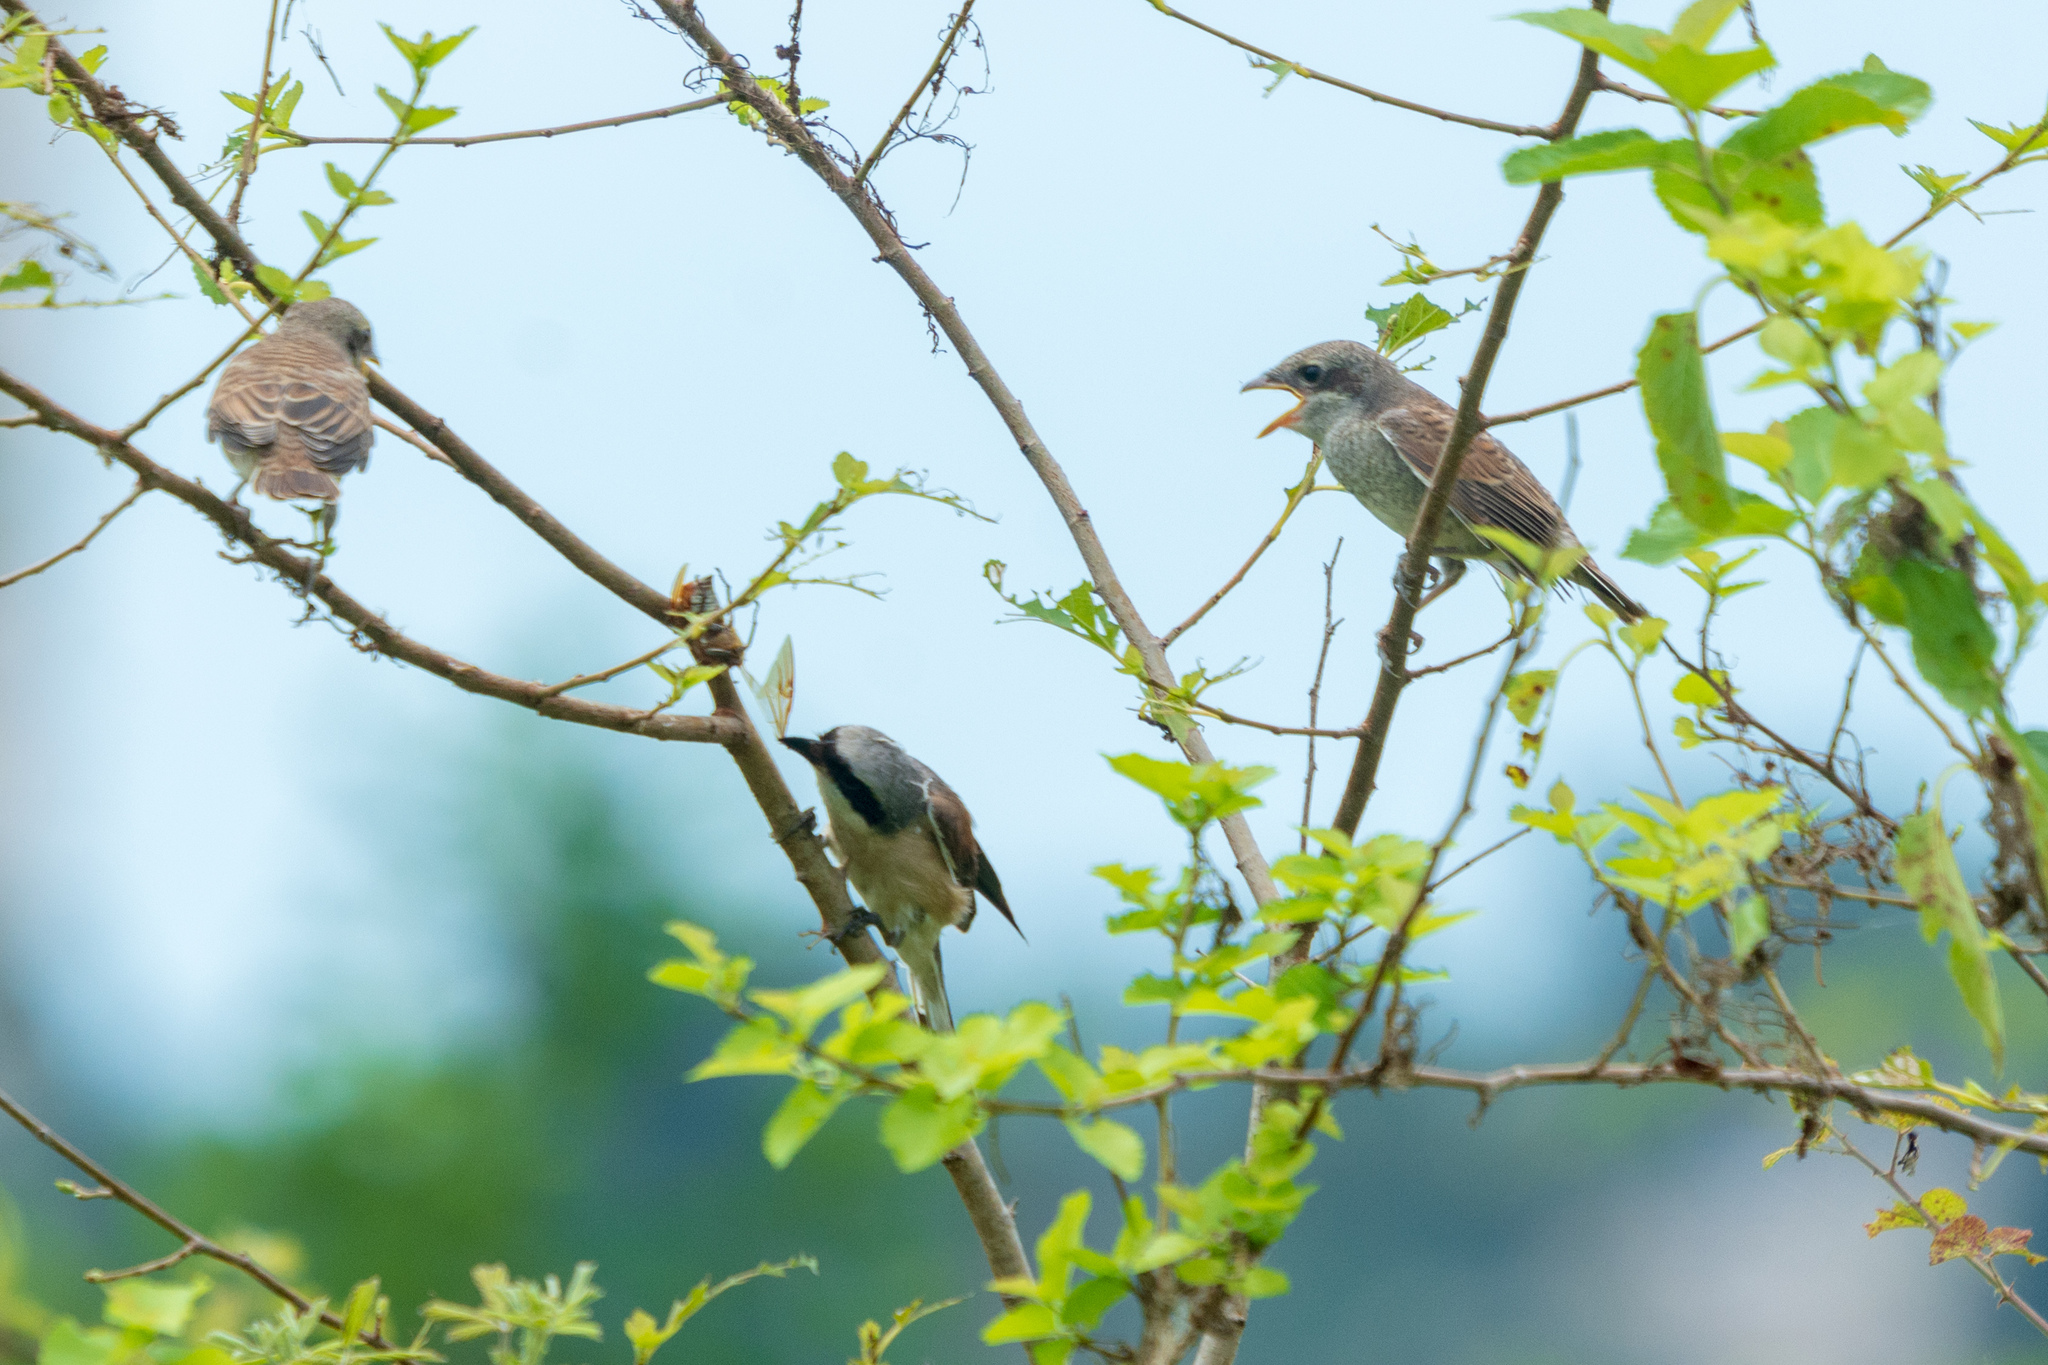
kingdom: Animalia
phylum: Chordata
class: Aves
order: Passeriformes
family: Laniidae
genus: Lanius
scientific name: Lanius collurio
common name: Red-backed shrike
